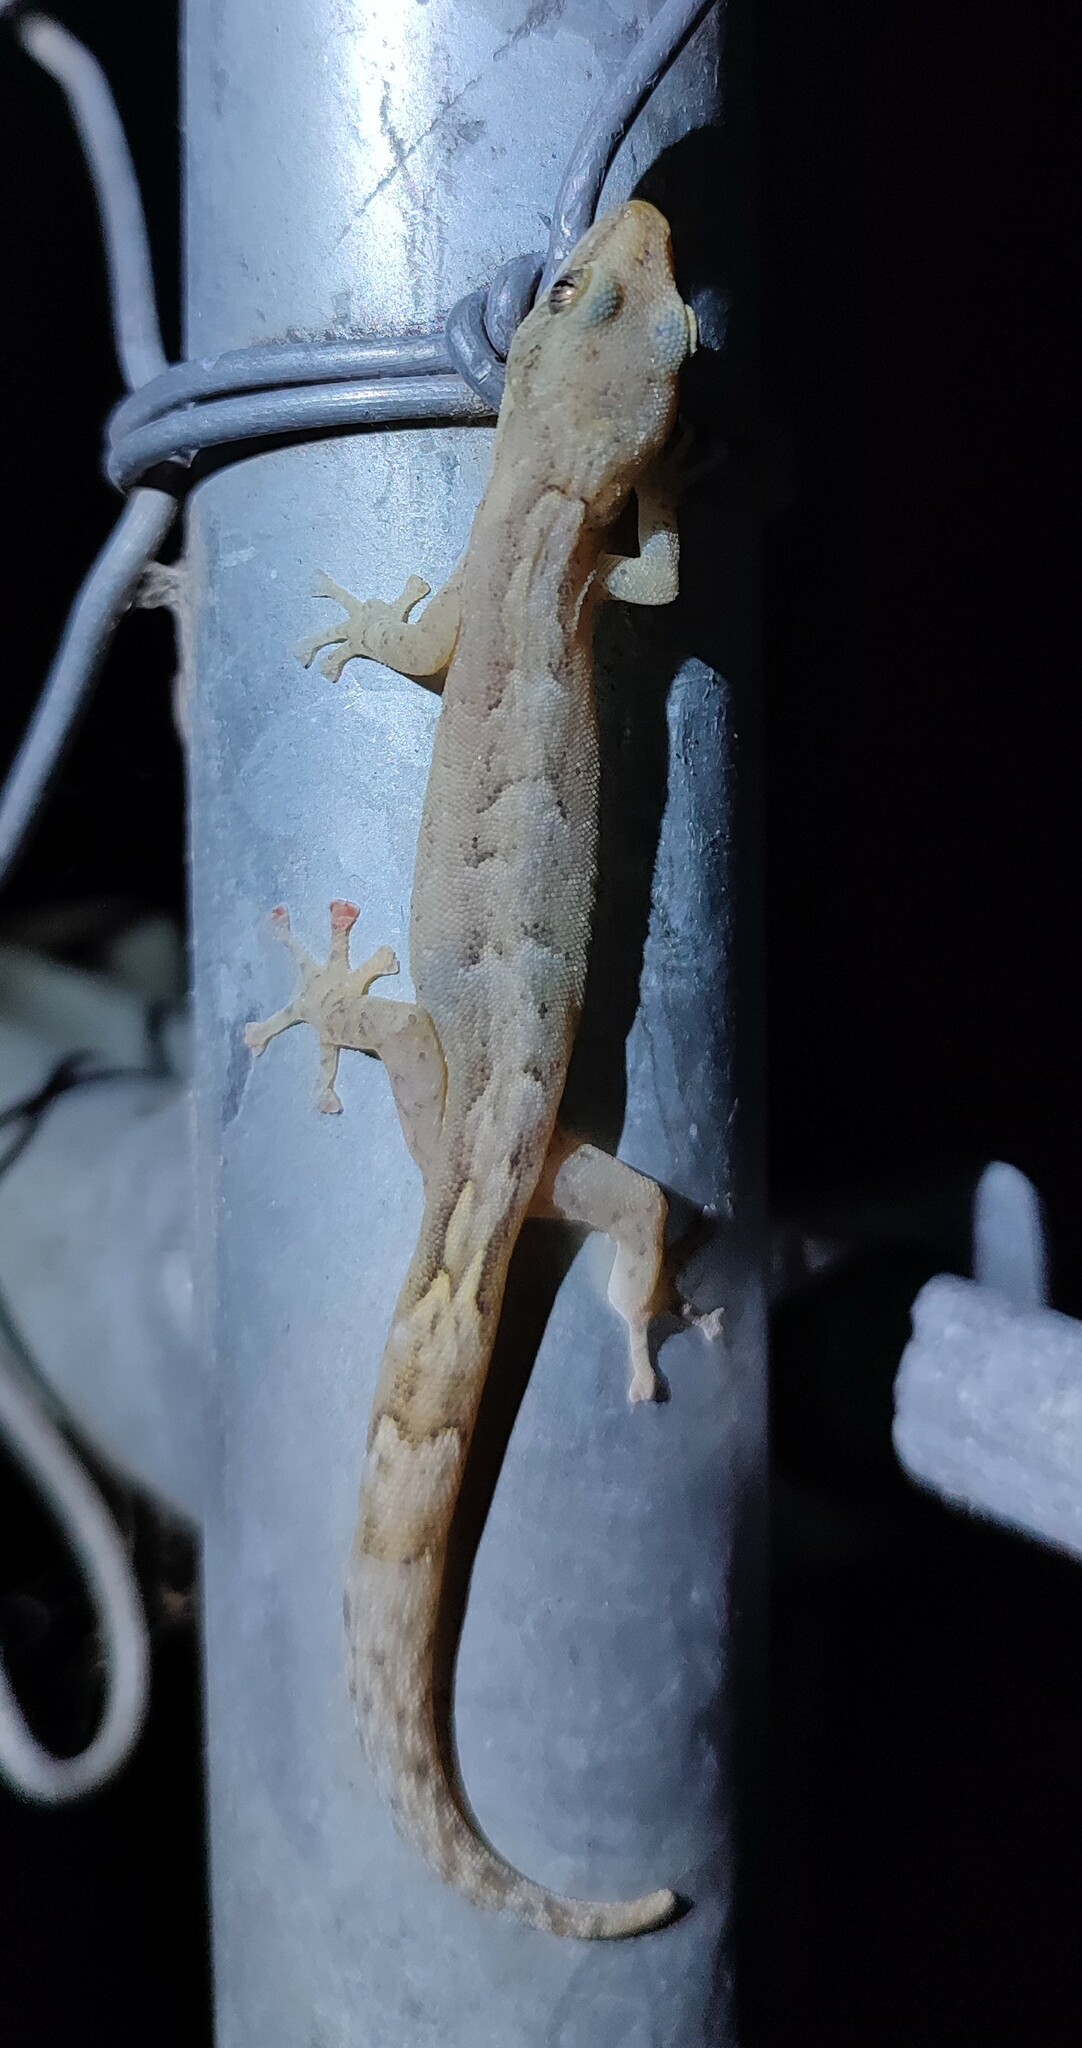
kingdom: Animalia
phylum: Chordata
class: Squamata
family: Gekkonidae
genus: Afrogecko
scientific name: Afrogecko porphyreus
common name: Marbled leaf-toed gecko
